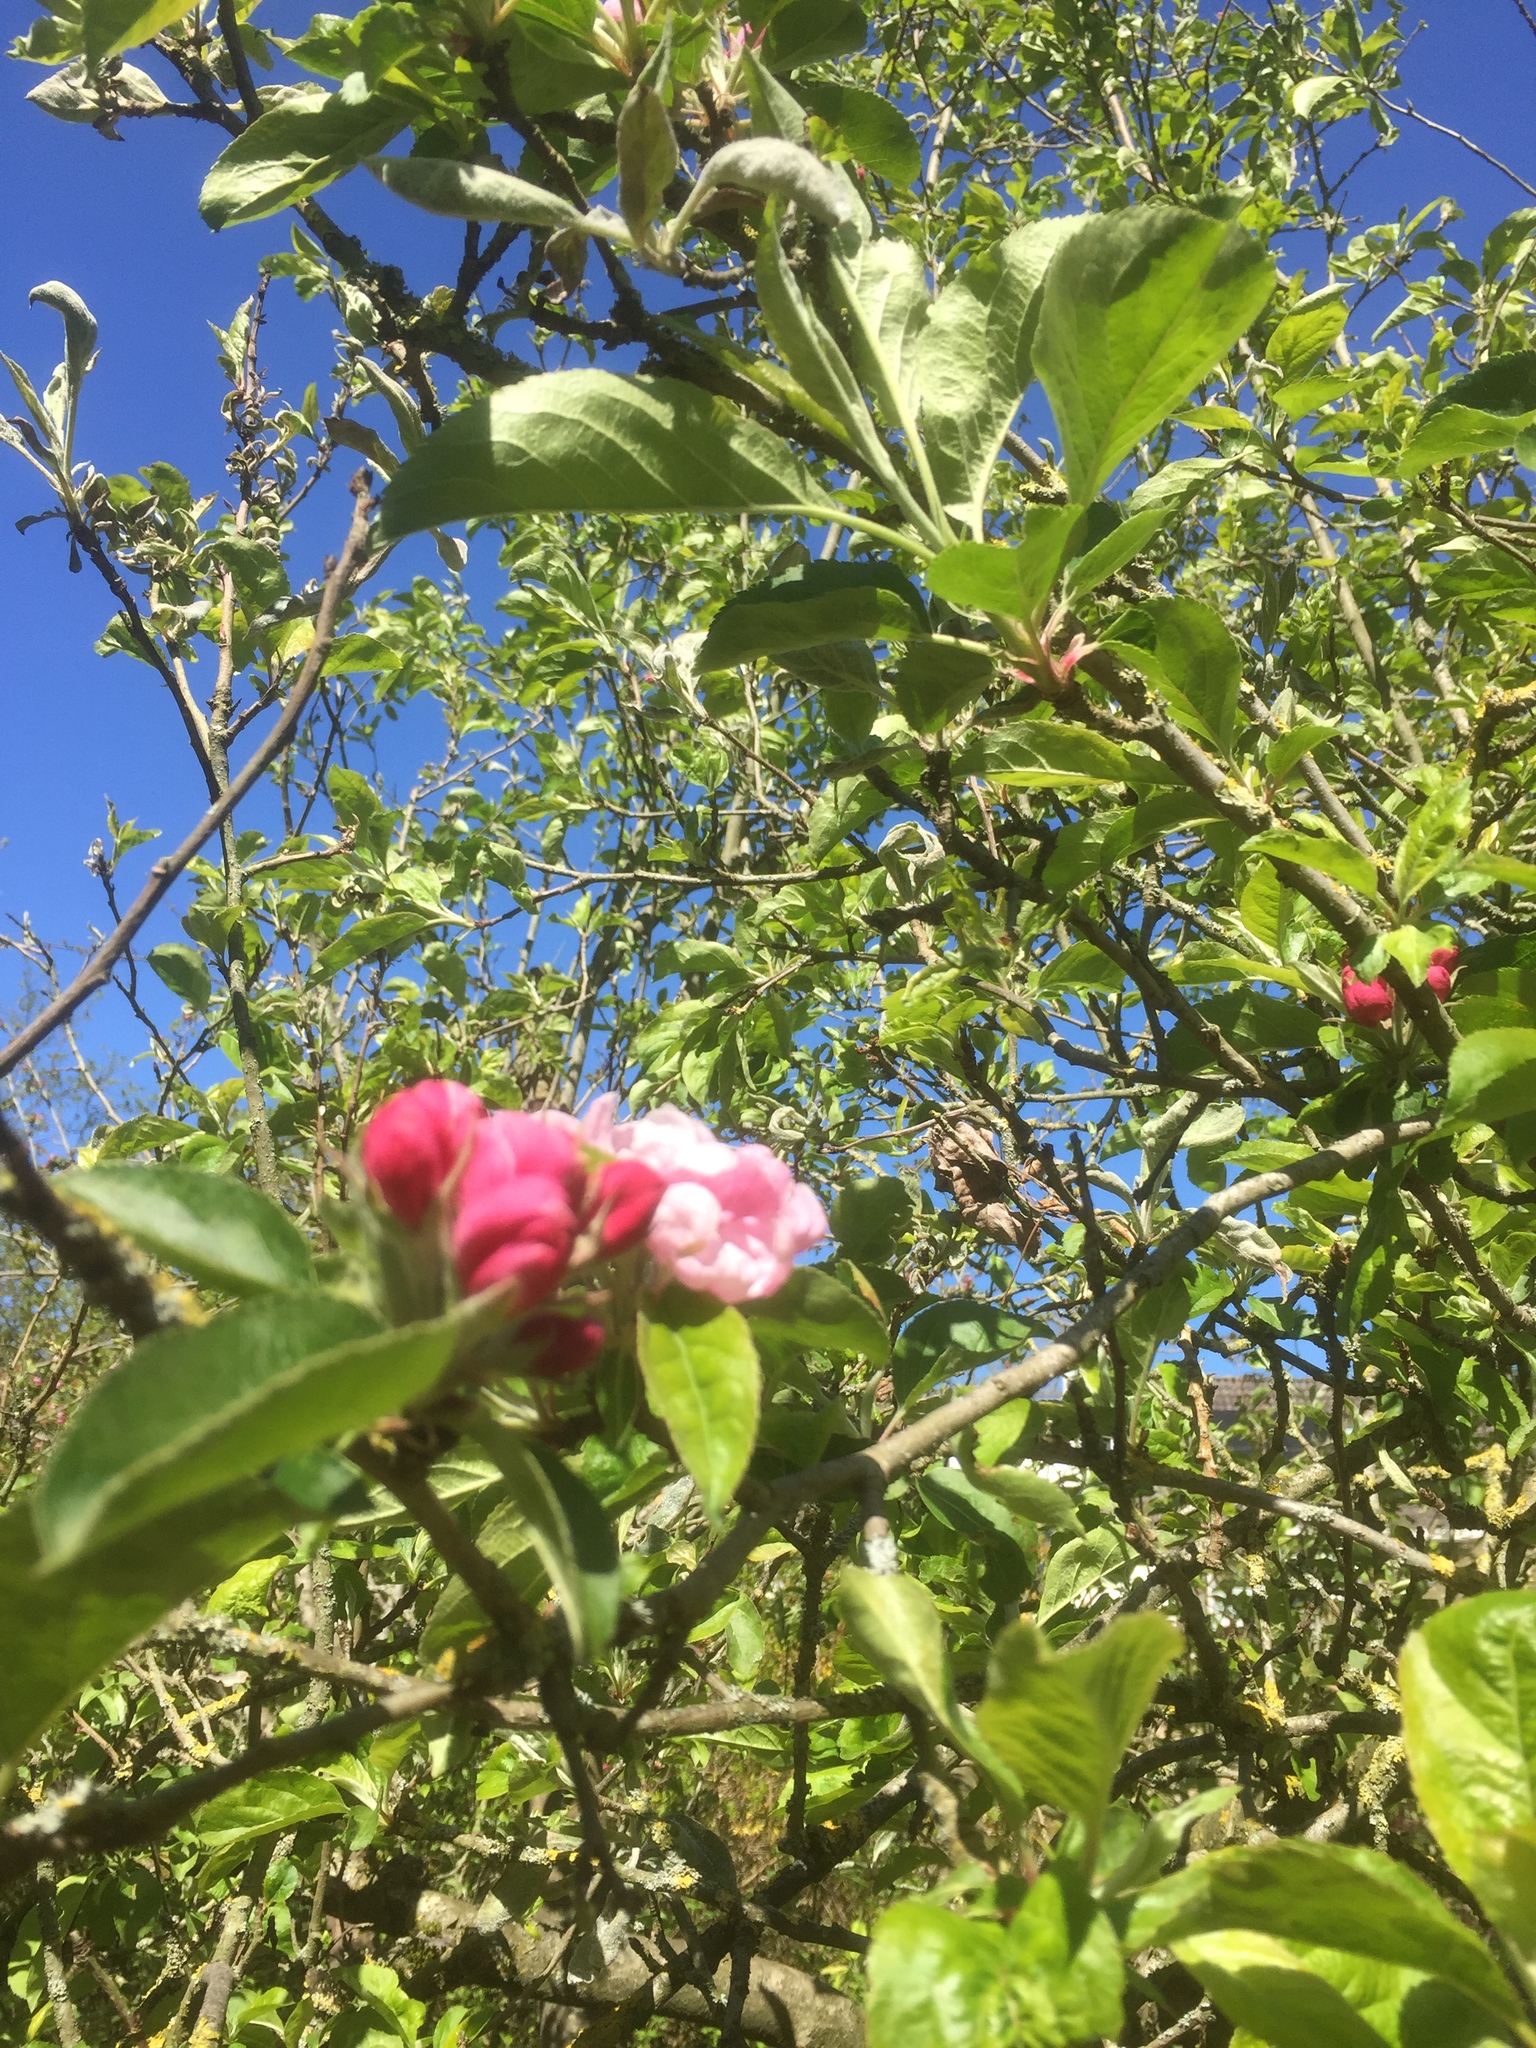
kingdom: Plantae
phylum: Tracheophyta
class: Magnoliopsida
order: Rosales
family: Rosaceae
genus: Malus
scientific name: Malus domestica
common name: Apple
